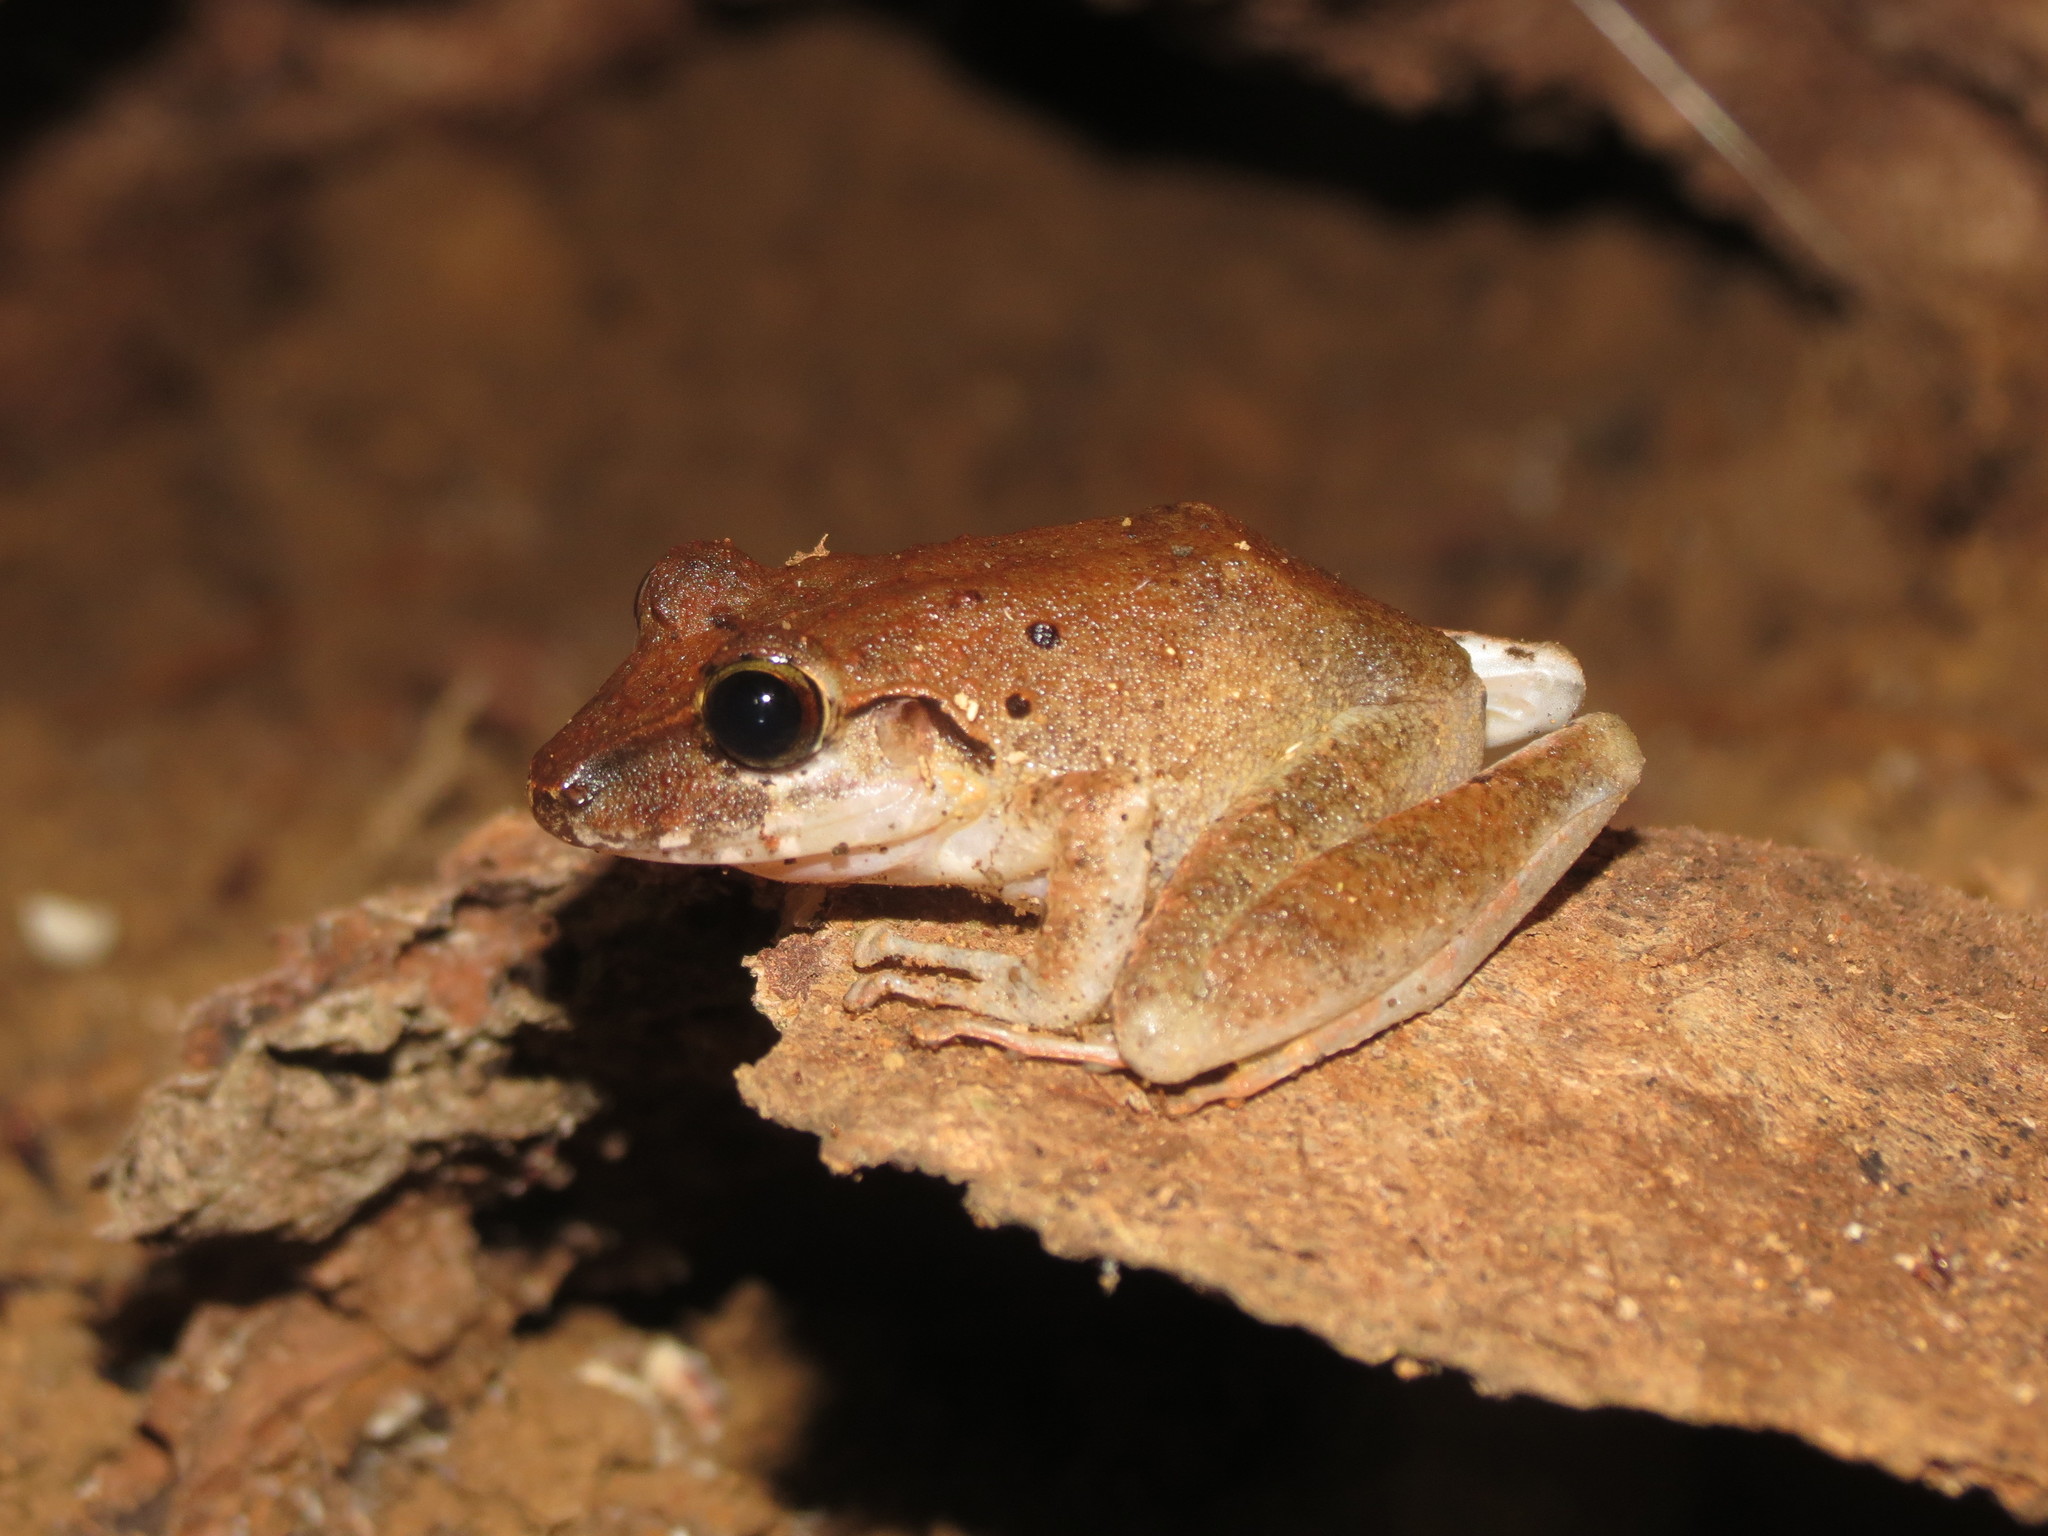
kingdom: Animalia
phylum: Chordata
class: Amphibia
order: Anura
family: Craugastoridae
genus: Craugastor
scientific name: Craugastor crassidigitus
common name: Isla bonita robber frog
